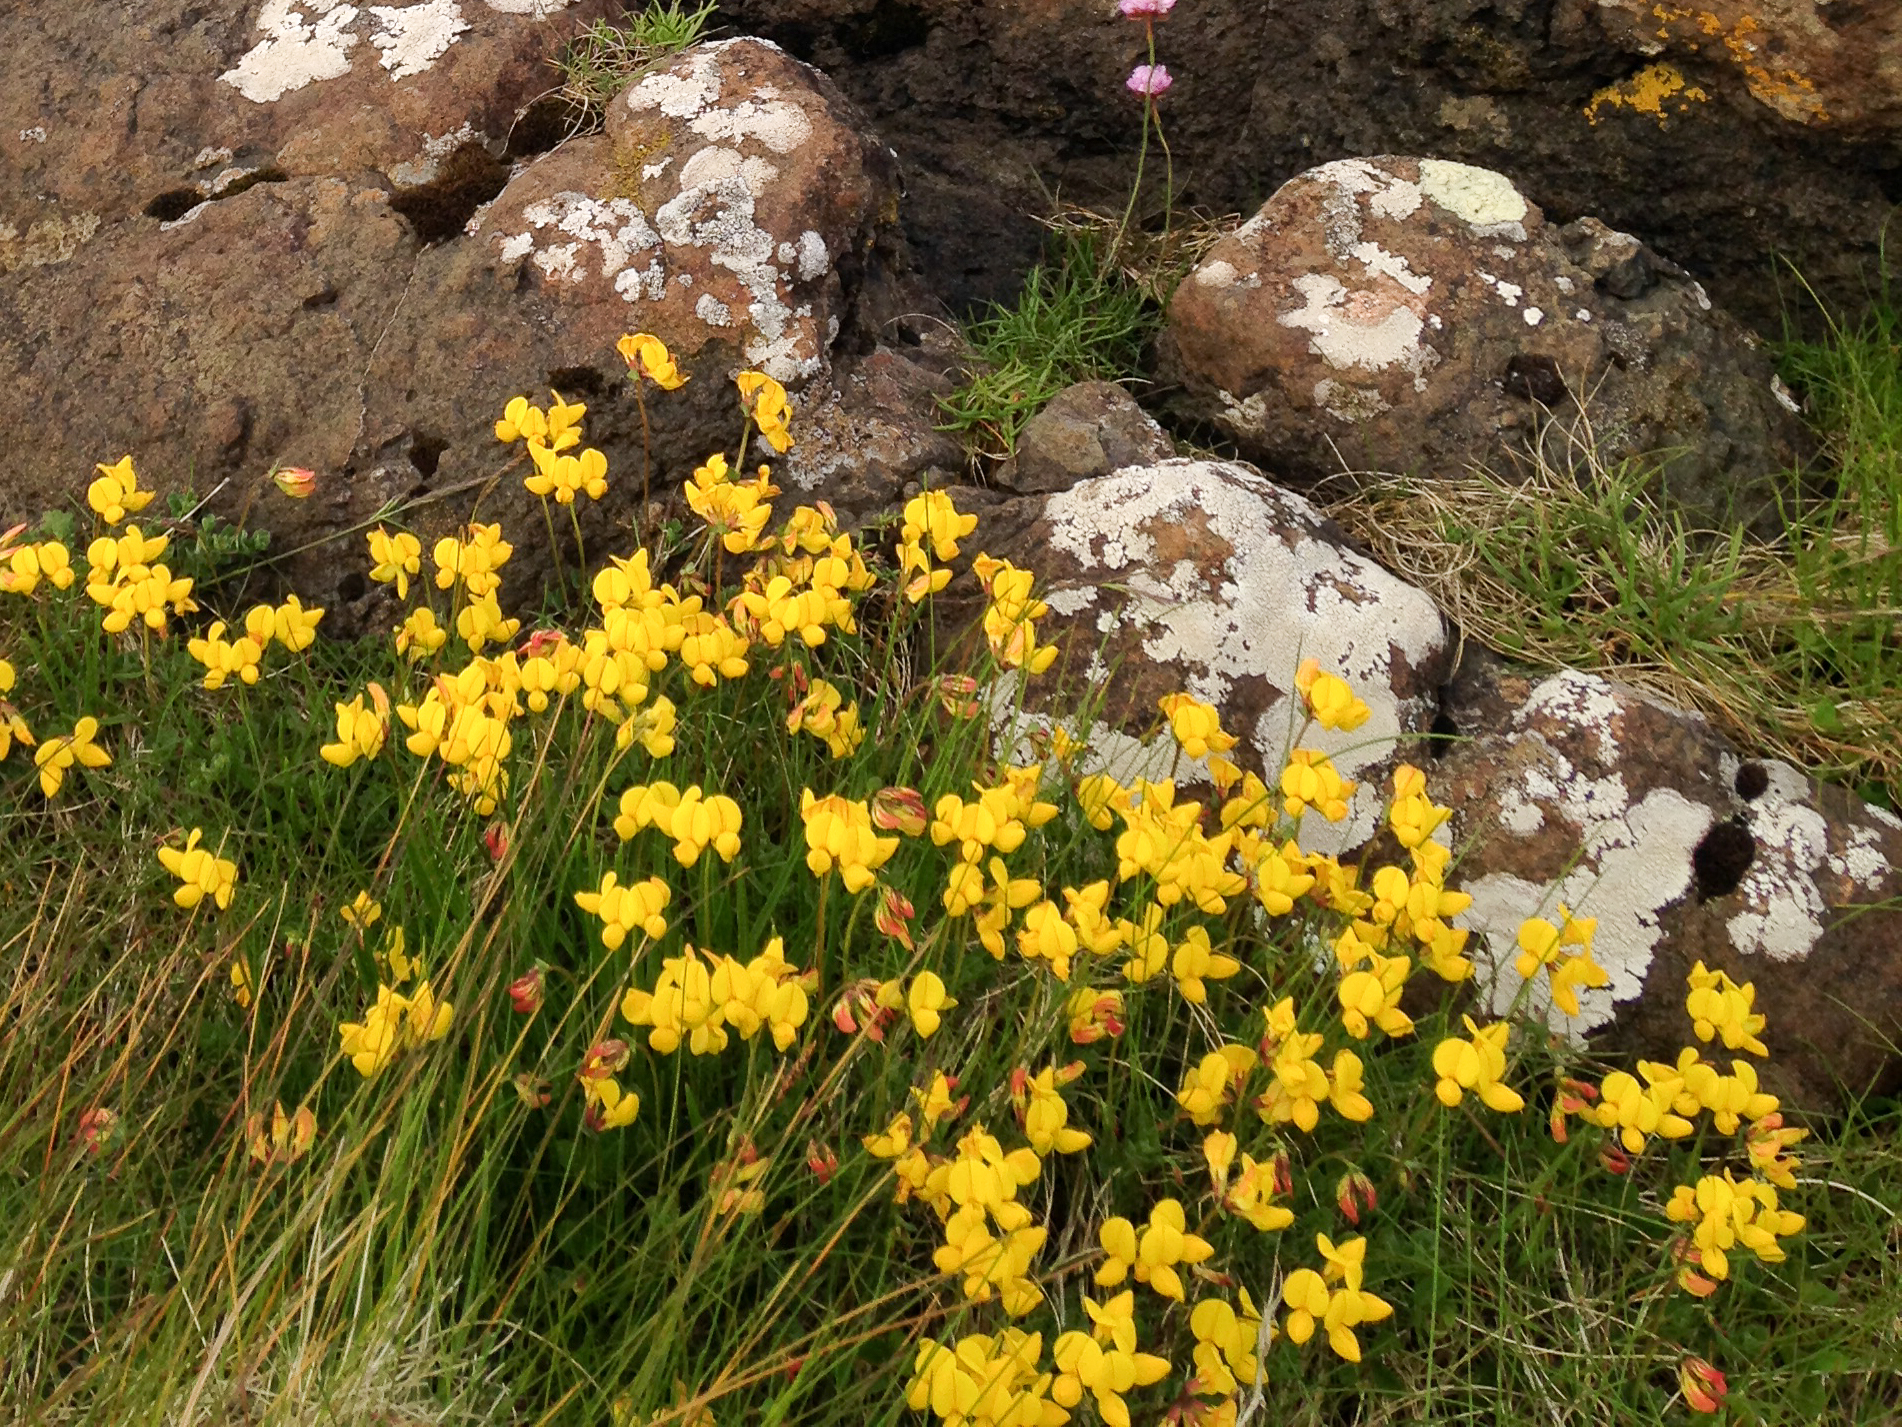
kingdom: Plantae
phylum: Tracheophyta
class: Magnoliopsida
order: Fabales
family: Fabaceae
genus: Lotus
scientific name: Lotus corniculatus
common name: Common bird's-foot-trefoil
